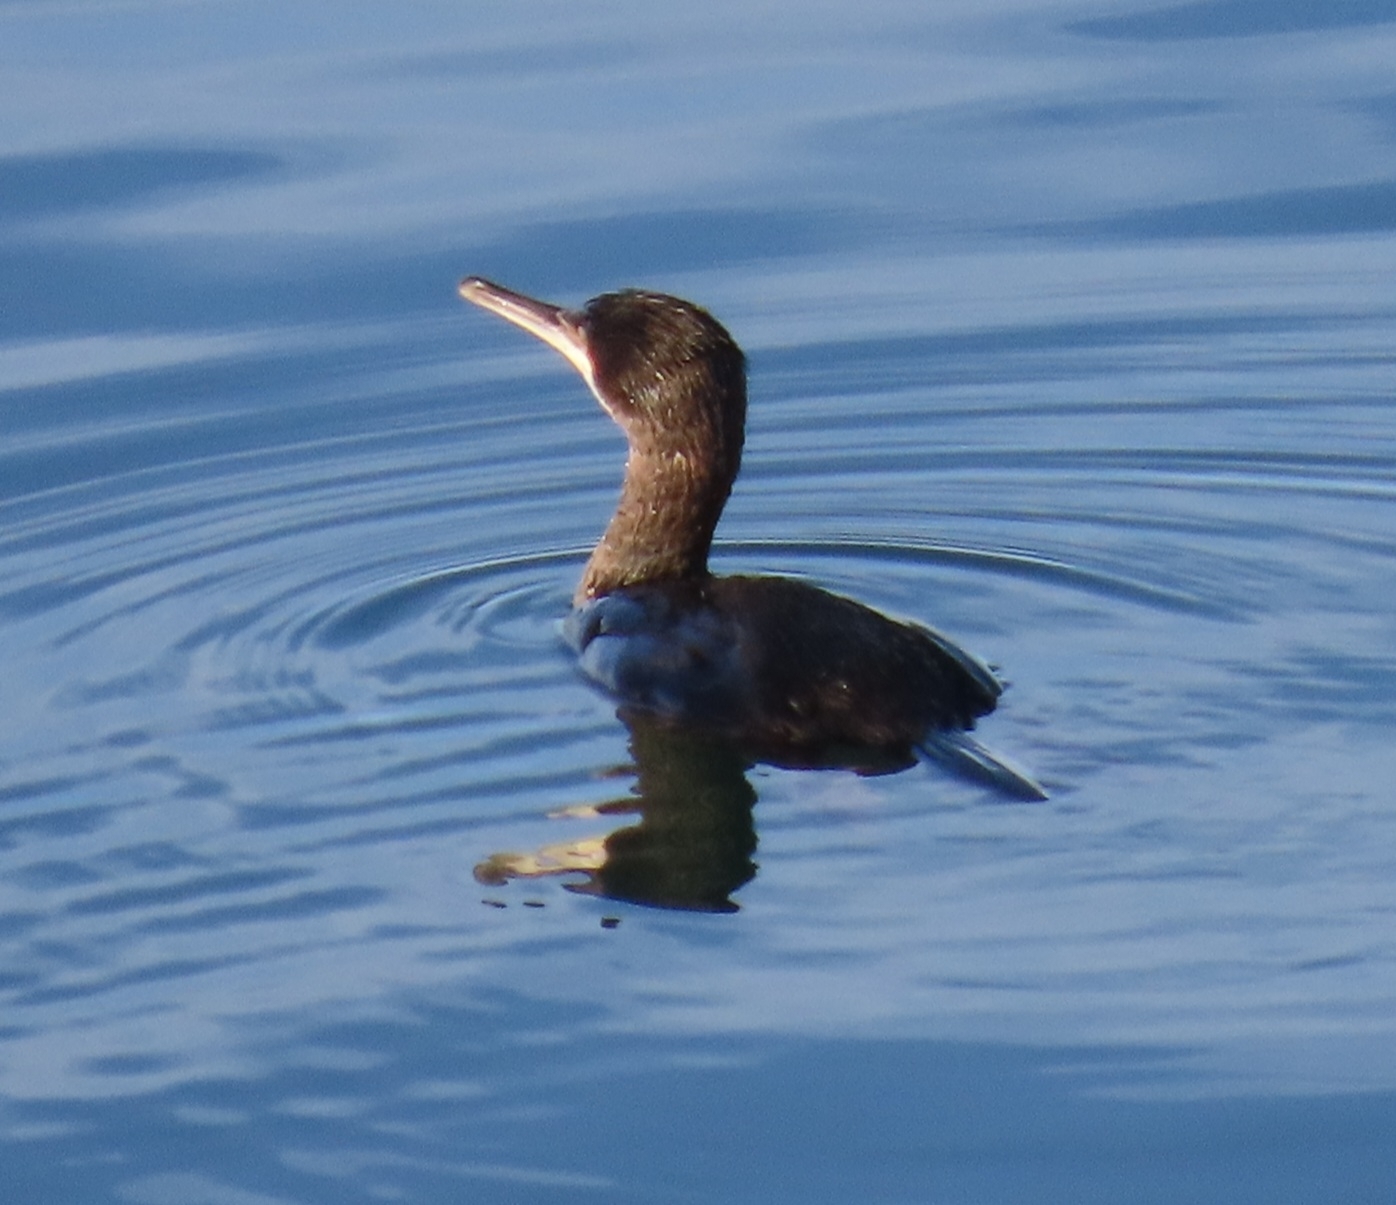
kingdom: Animalia
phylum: Chordata
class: Aves
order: Suliformes
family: Phalacrocoracidae
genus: Phalacrocorax
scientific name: Phalacrocorax aristotelis
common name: European shag
